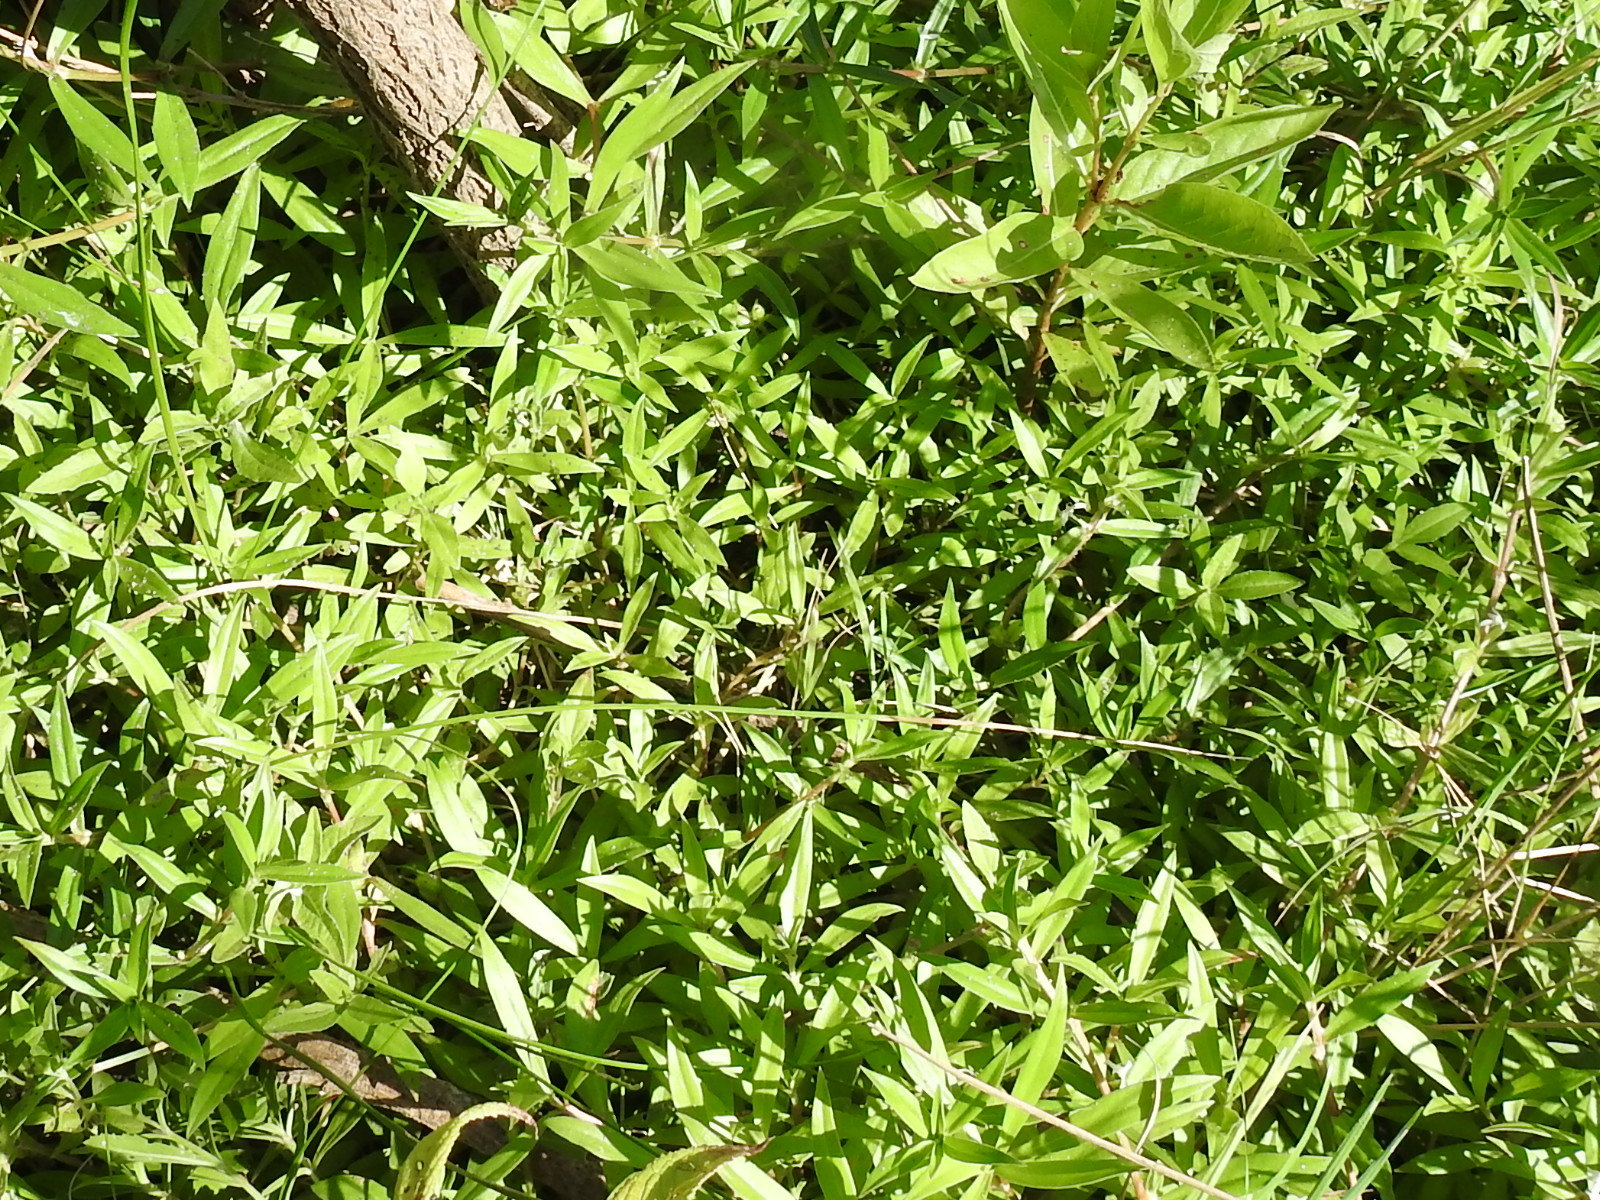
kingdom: Plantae
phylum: Tracheophyta
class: Magnoliopsida
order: Gentianales
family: Rubiaceae
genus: Diodia
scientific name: Diodia virginiana
